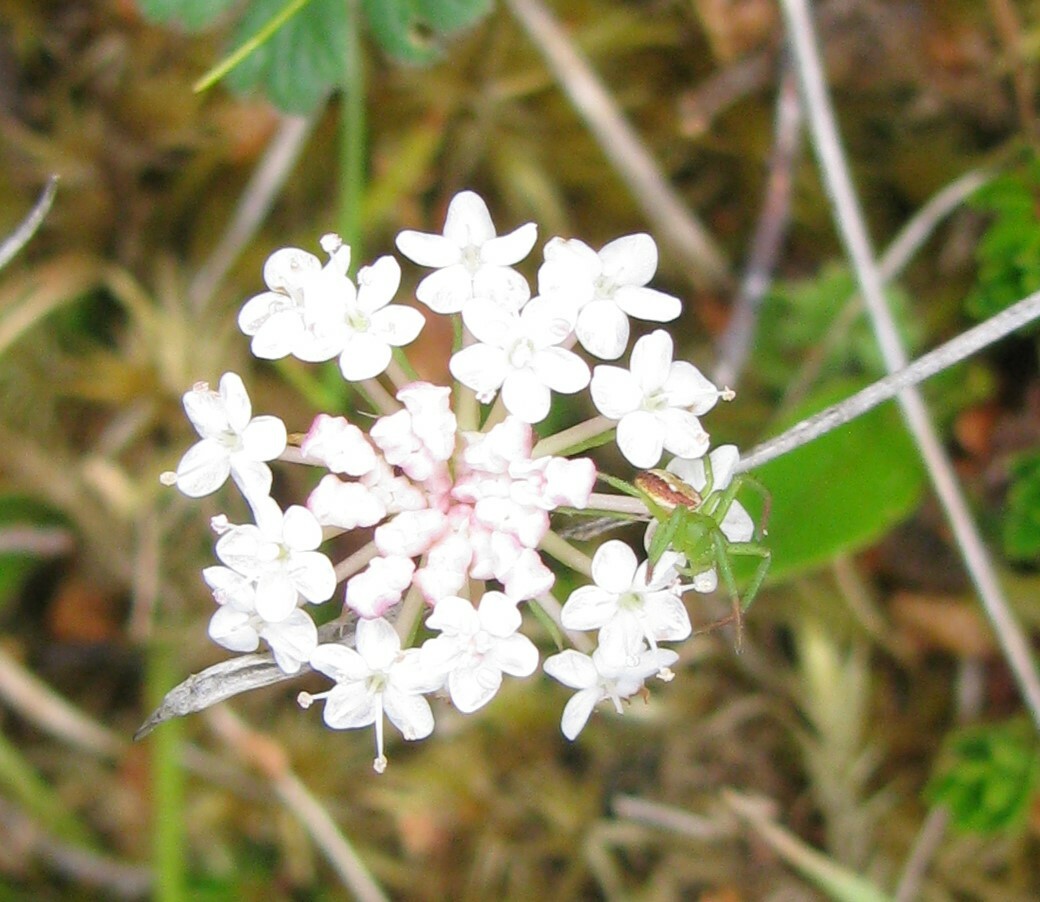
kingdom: Plantae
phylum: Tracheophyta
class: Magnoliopsida
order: Apiales
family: Araliaceae
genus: Trachymene
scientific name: Trachymene humilis
